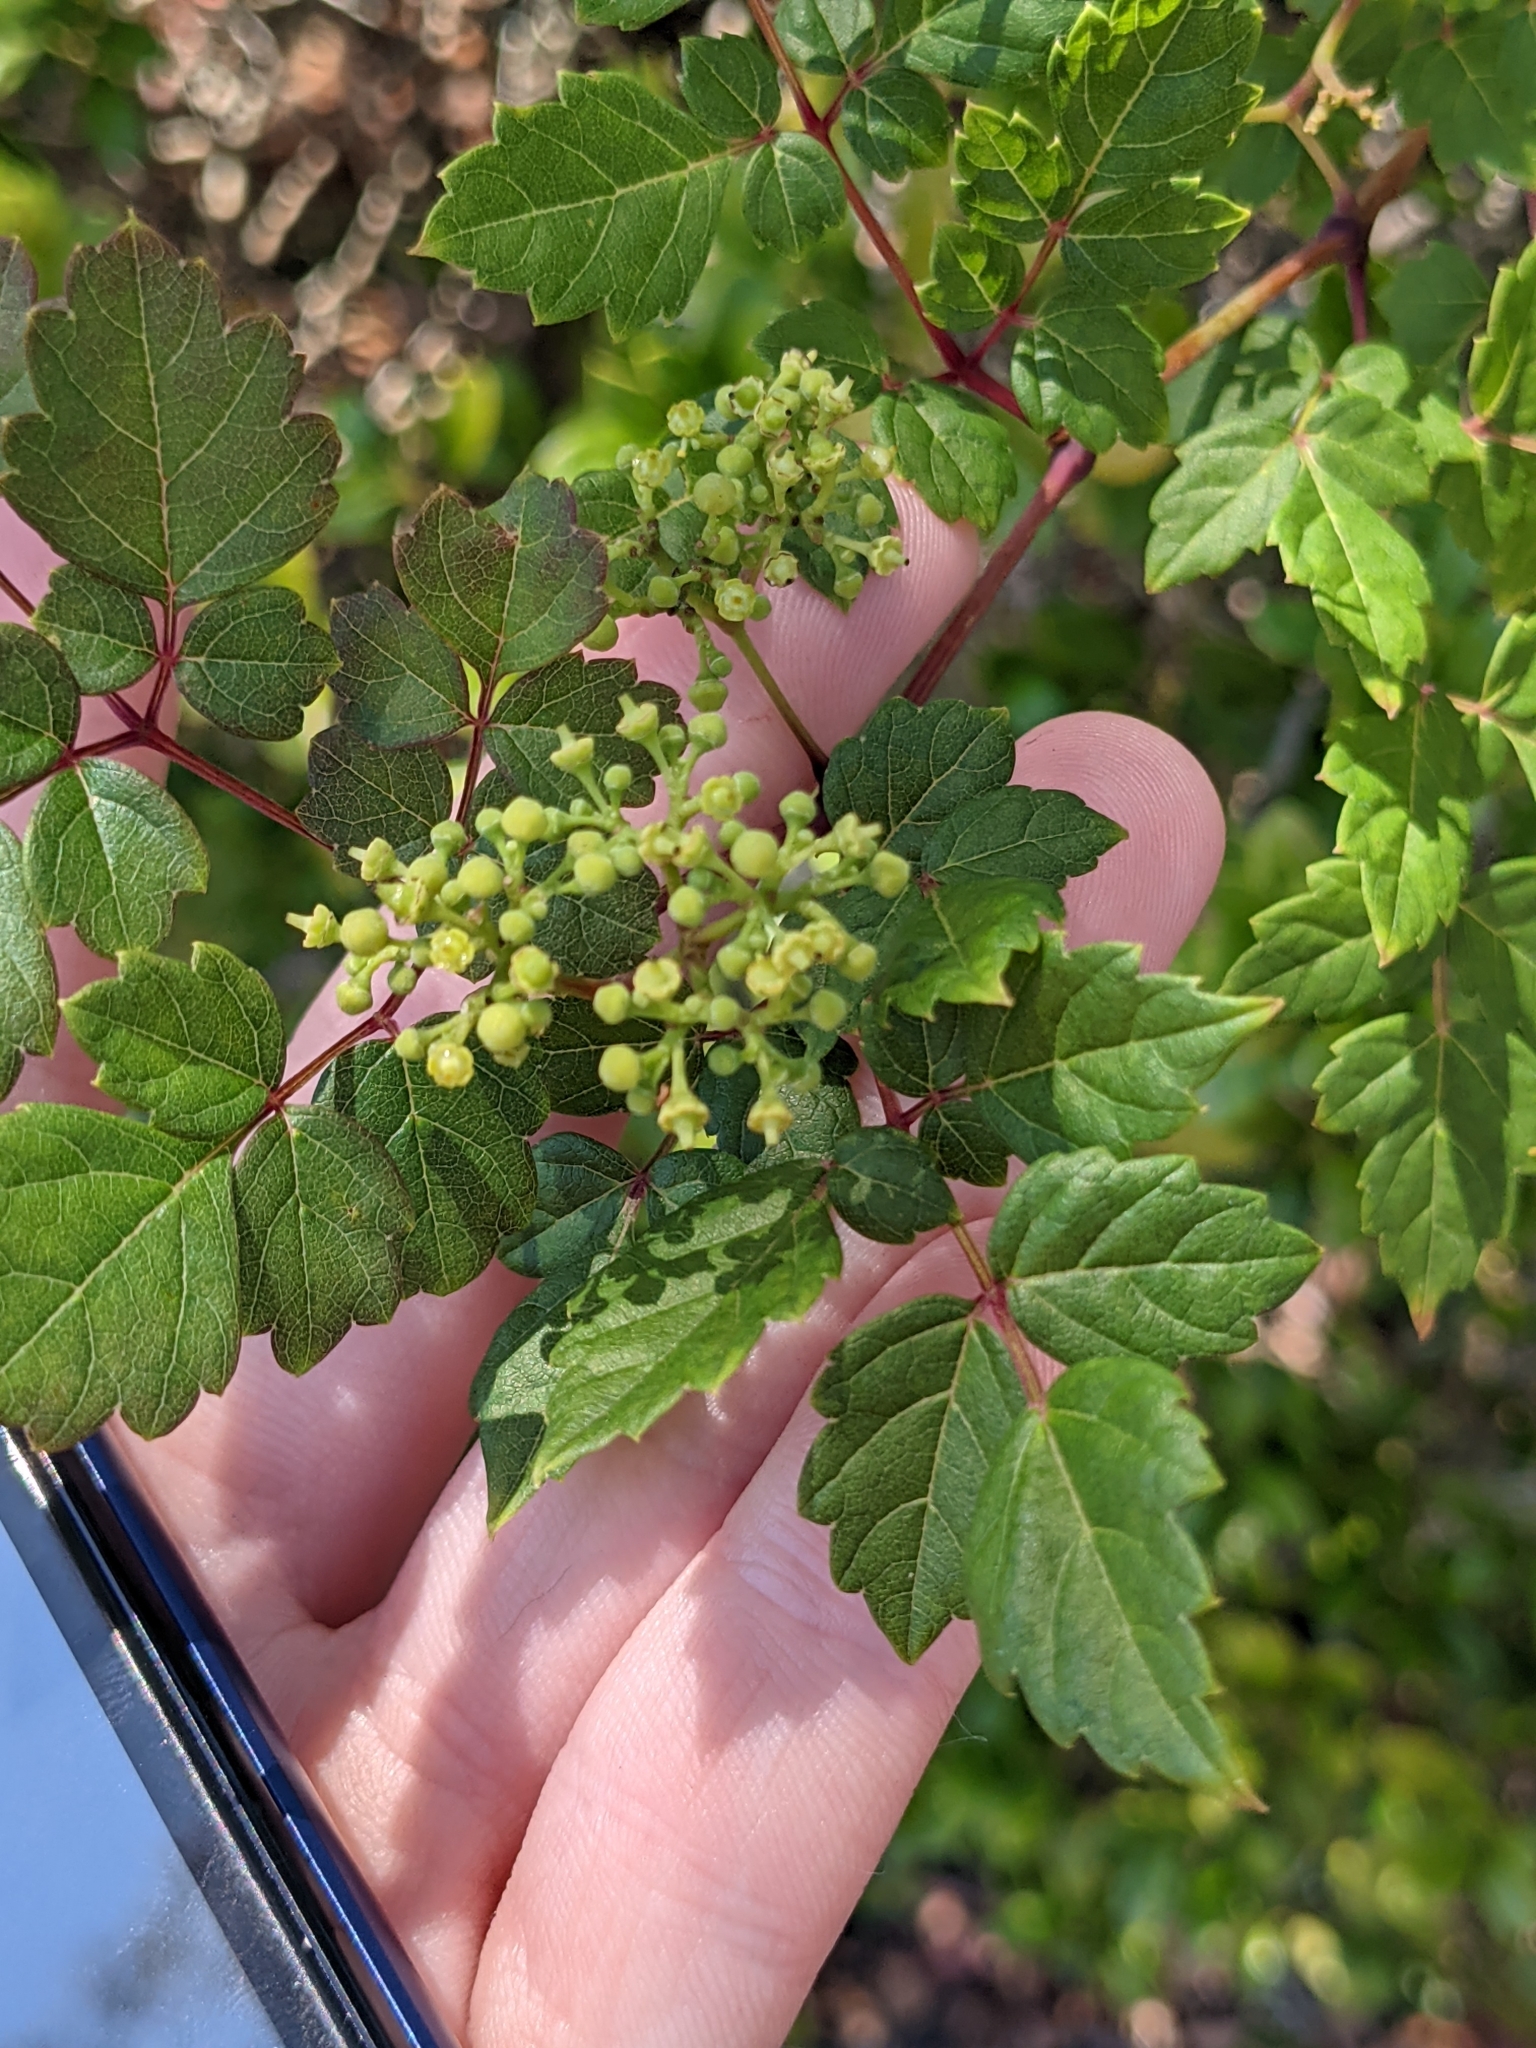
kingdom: Plantae
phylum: Tracheophyta
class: Magnoliopsida
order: Vitales
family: Vitaceae
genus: Nekemias
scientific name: Nekemias arborea
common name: Peppervine
